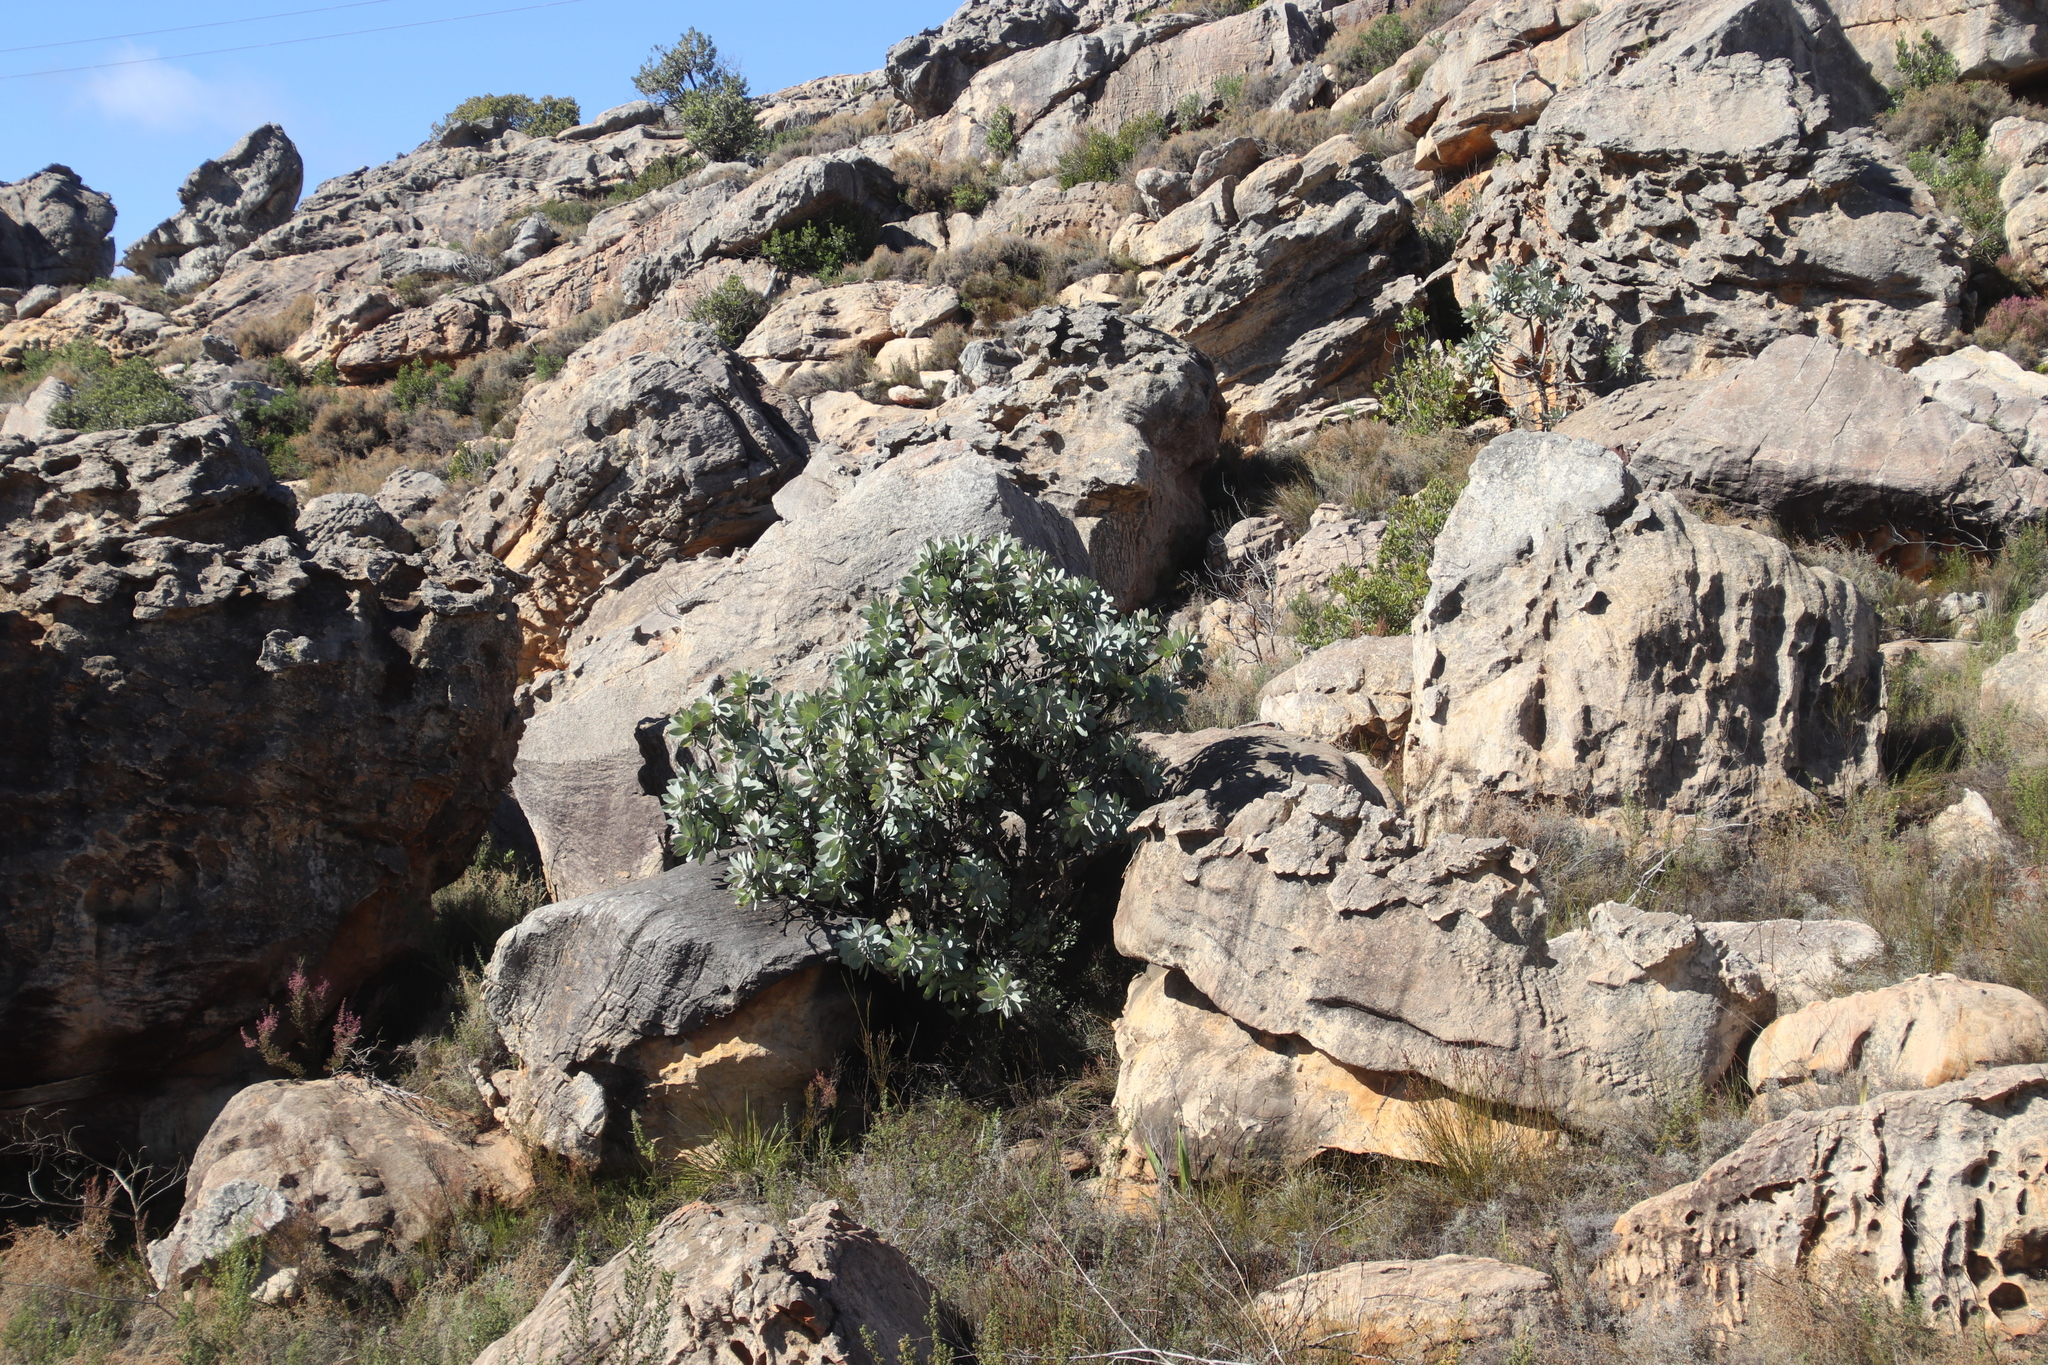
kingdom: Plantae
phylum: Tracheophyta
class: Magnoliopsida
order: Proteales
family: Proteaceae
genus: Protea
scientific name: Protea nitida
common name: Tree protea
